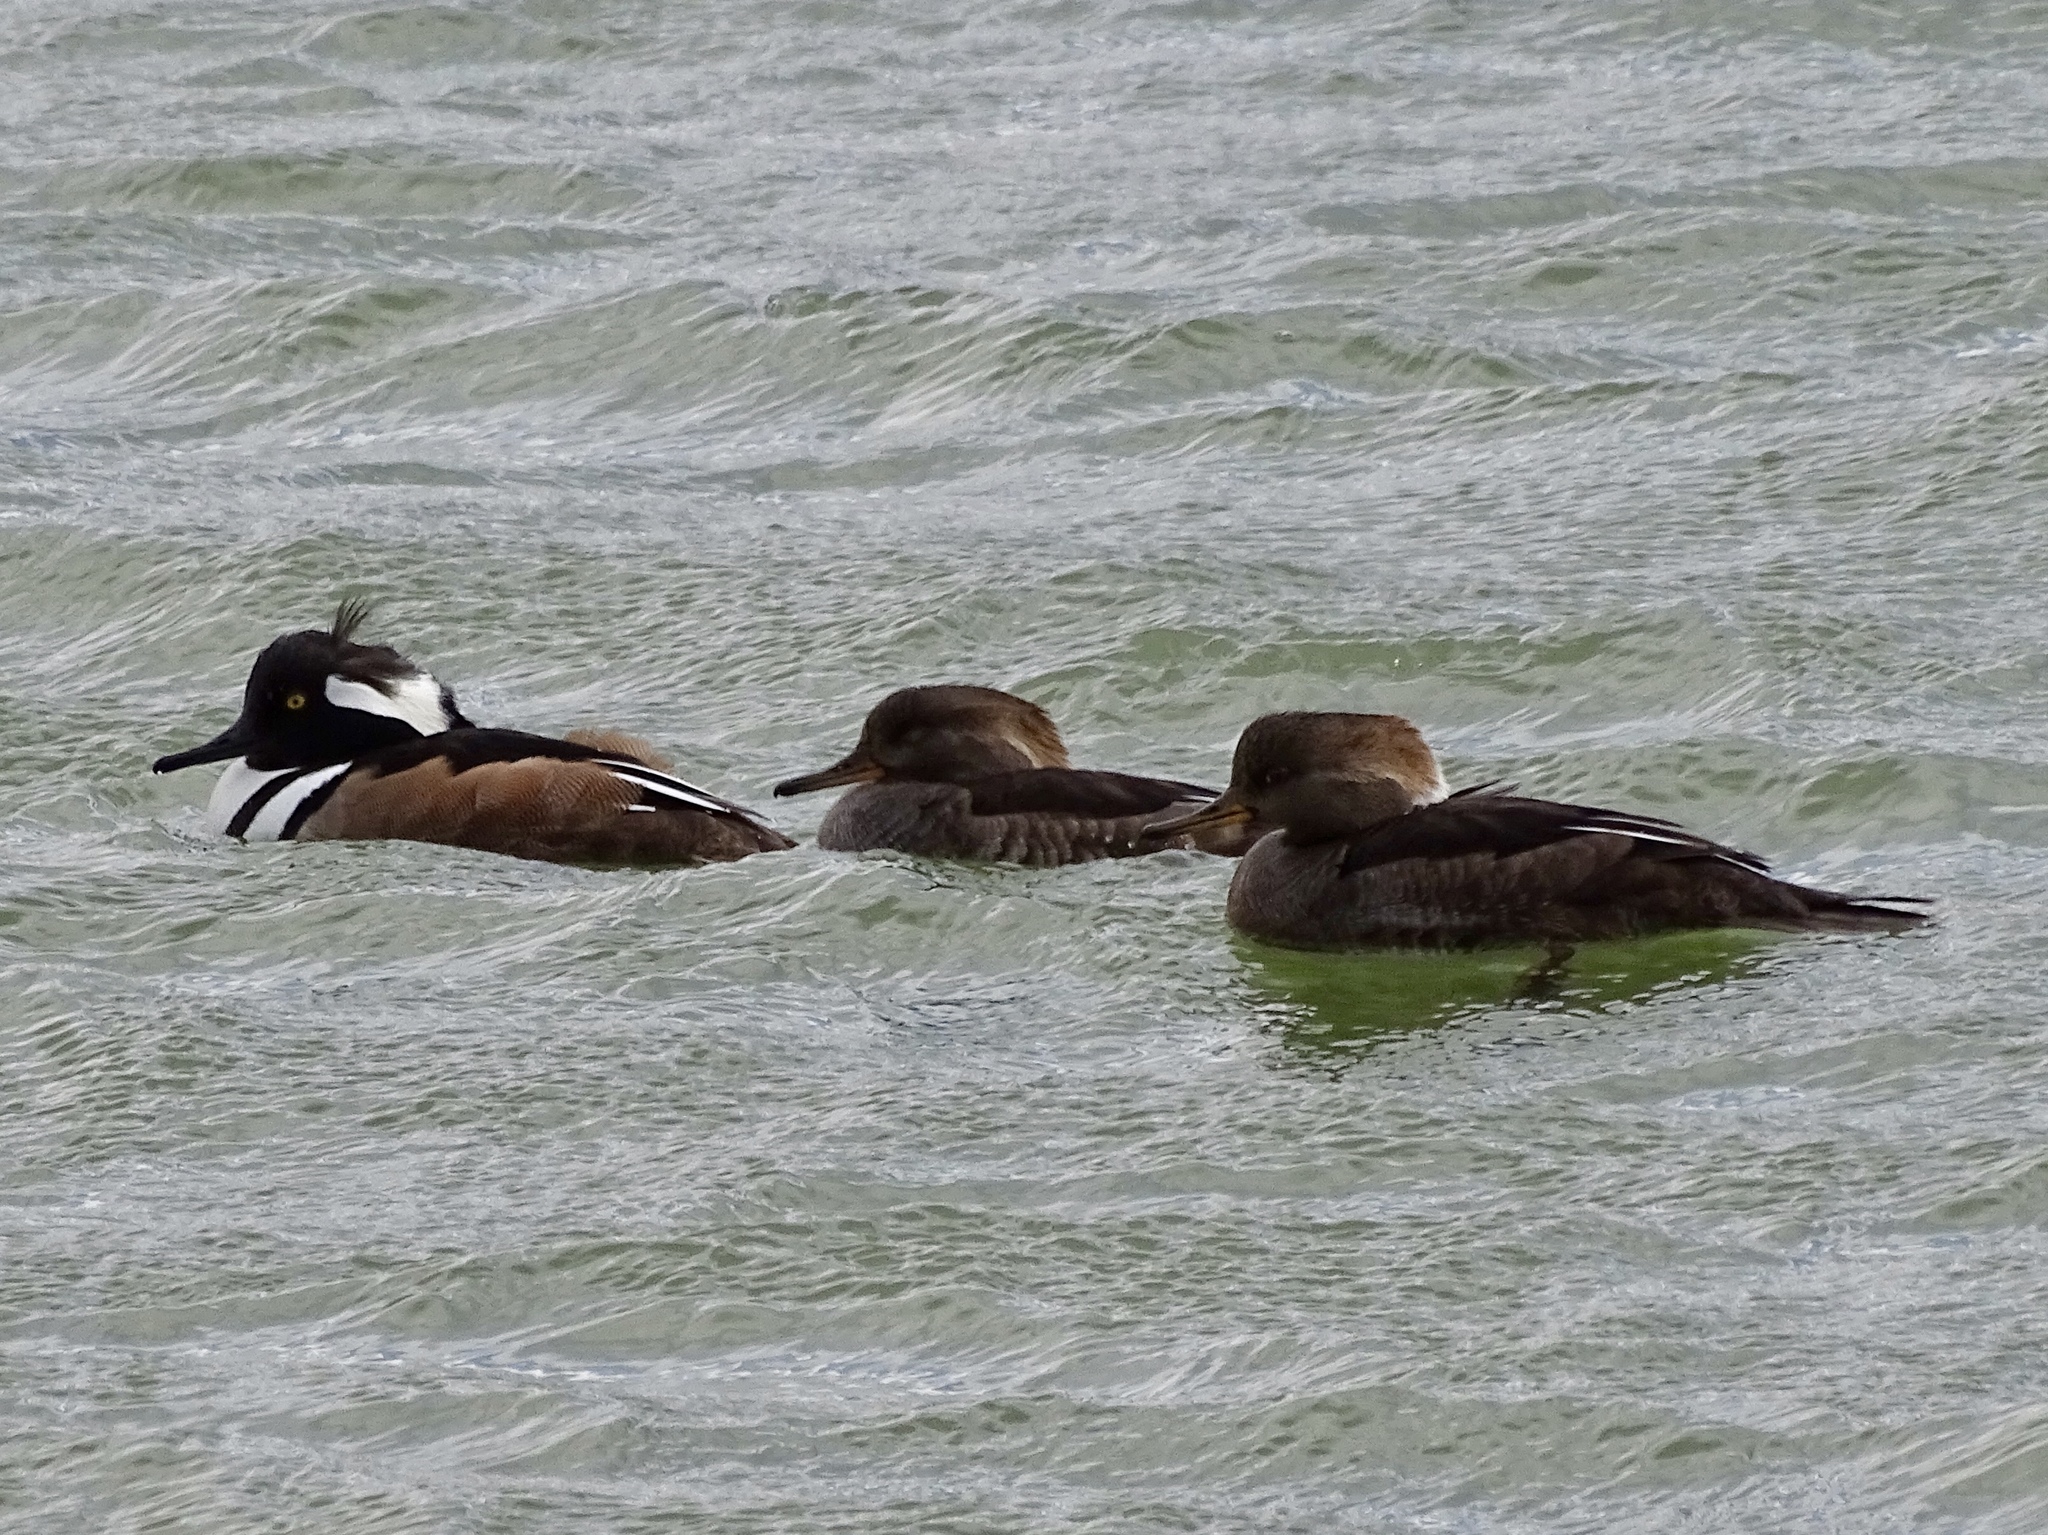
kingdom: Animalia
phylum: Chordata
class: Aves
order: Anseriformes
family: Anatidae
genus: Lophodytes
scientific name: Lophodytes cucullatus
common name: Hooded merganser
